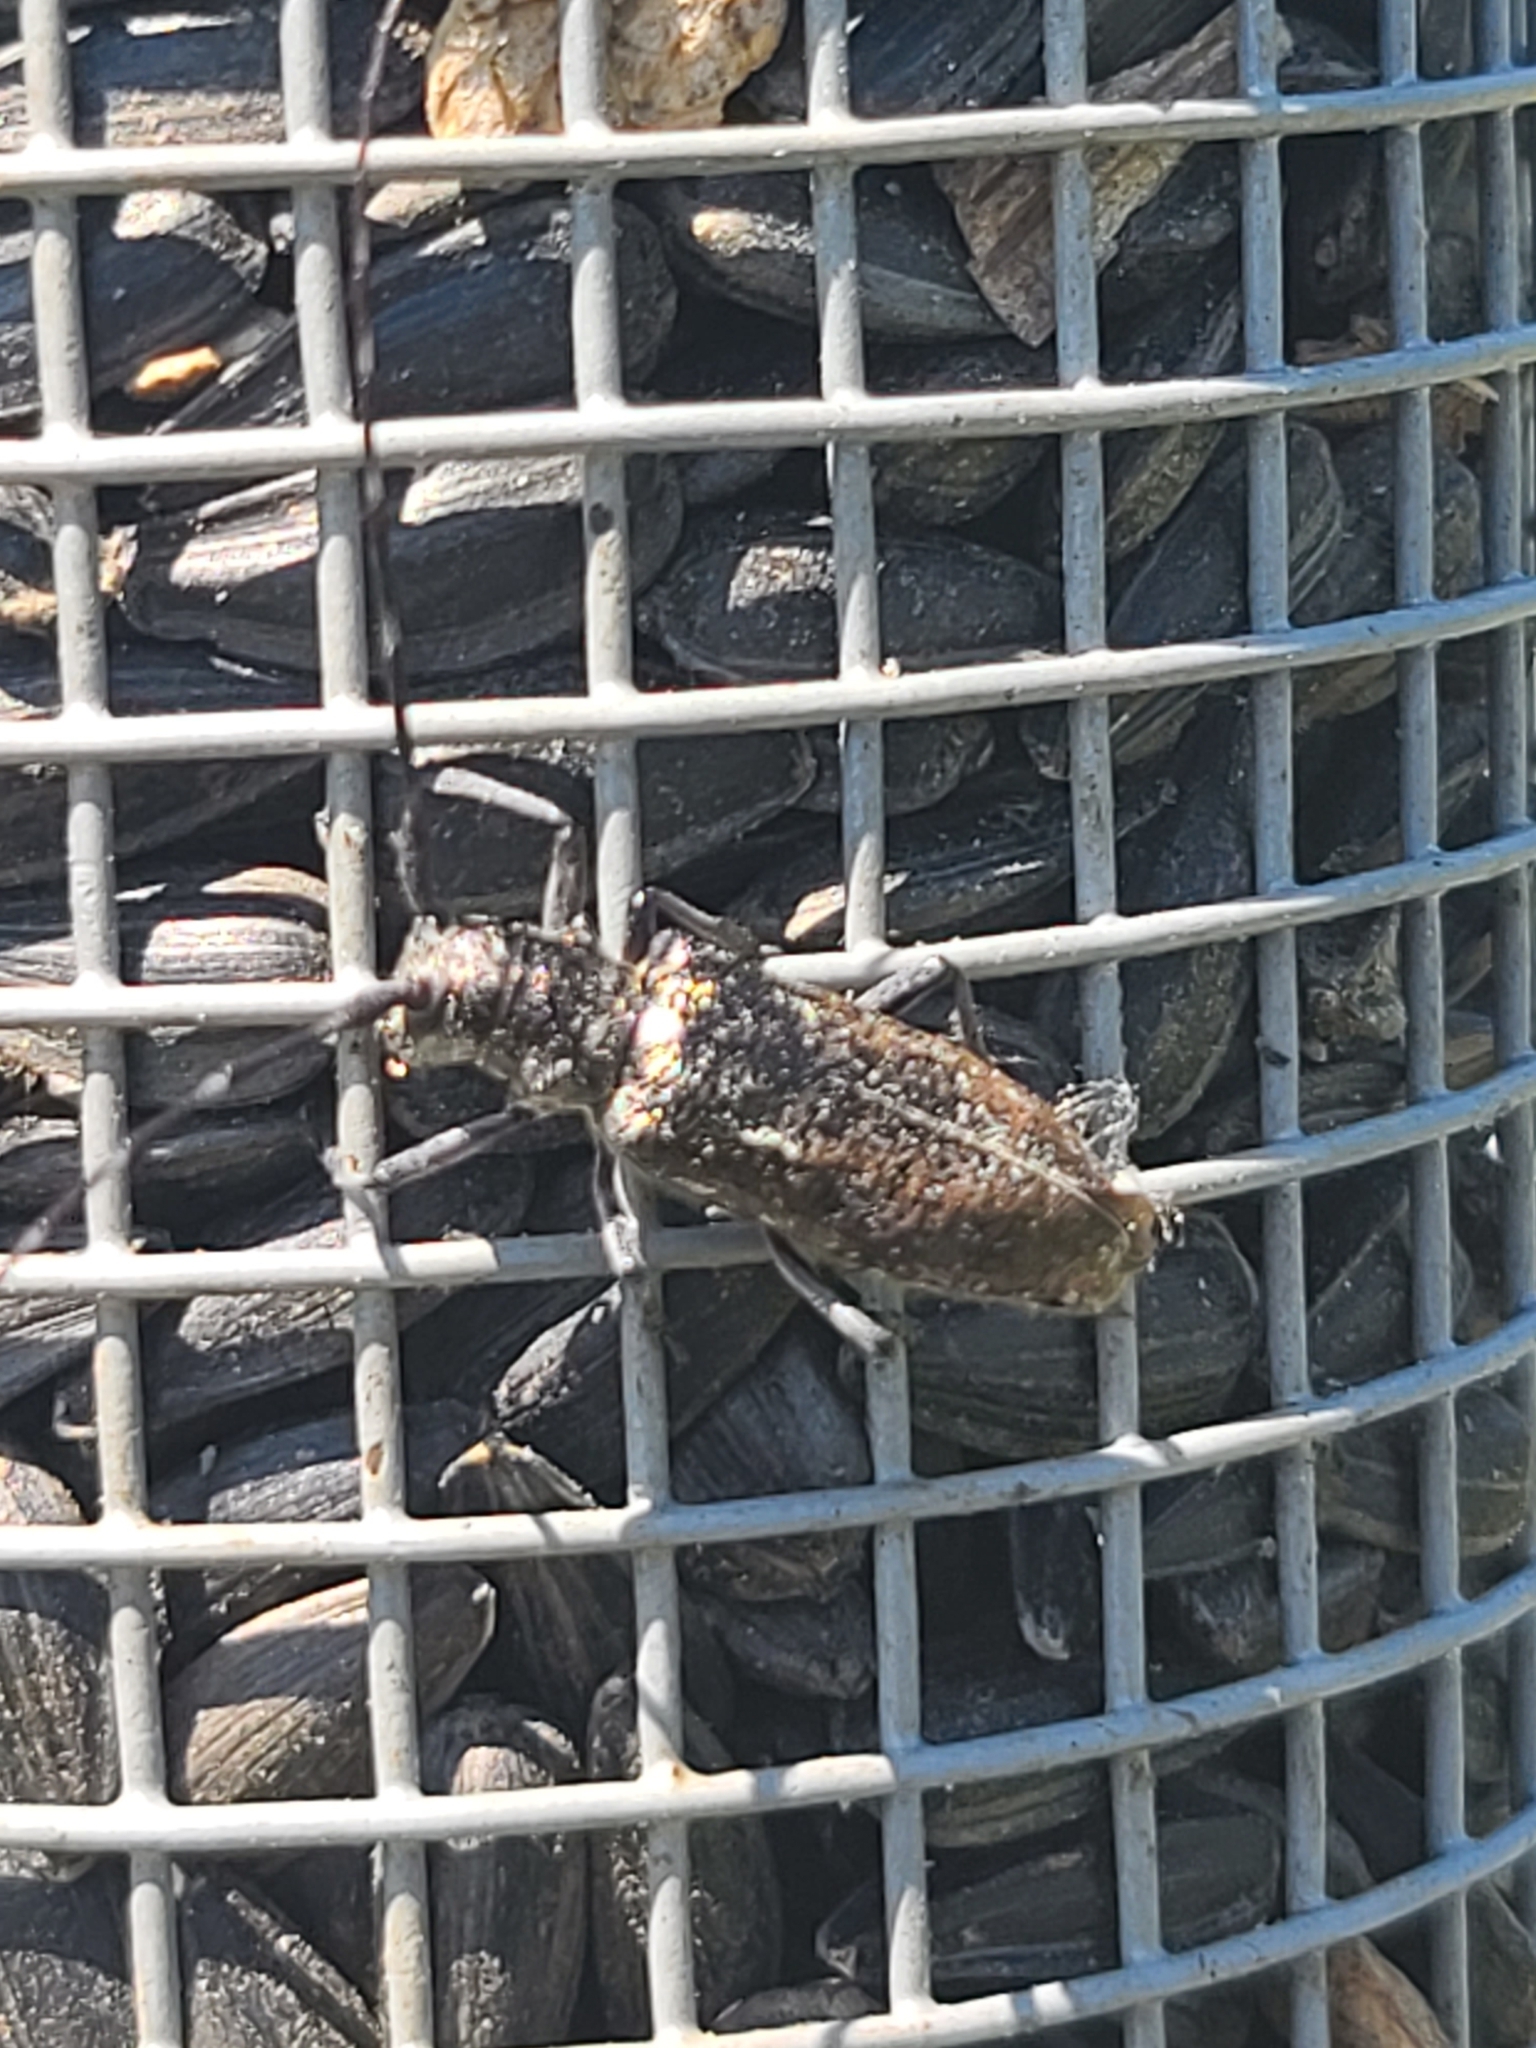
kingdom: Animalia
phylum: Arthropoda
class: Insecta
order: Coleoptera
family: Cerambycidae
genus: Monochamus
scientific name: Monochamus scutellatus
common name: White-spotted sawyer beetle
